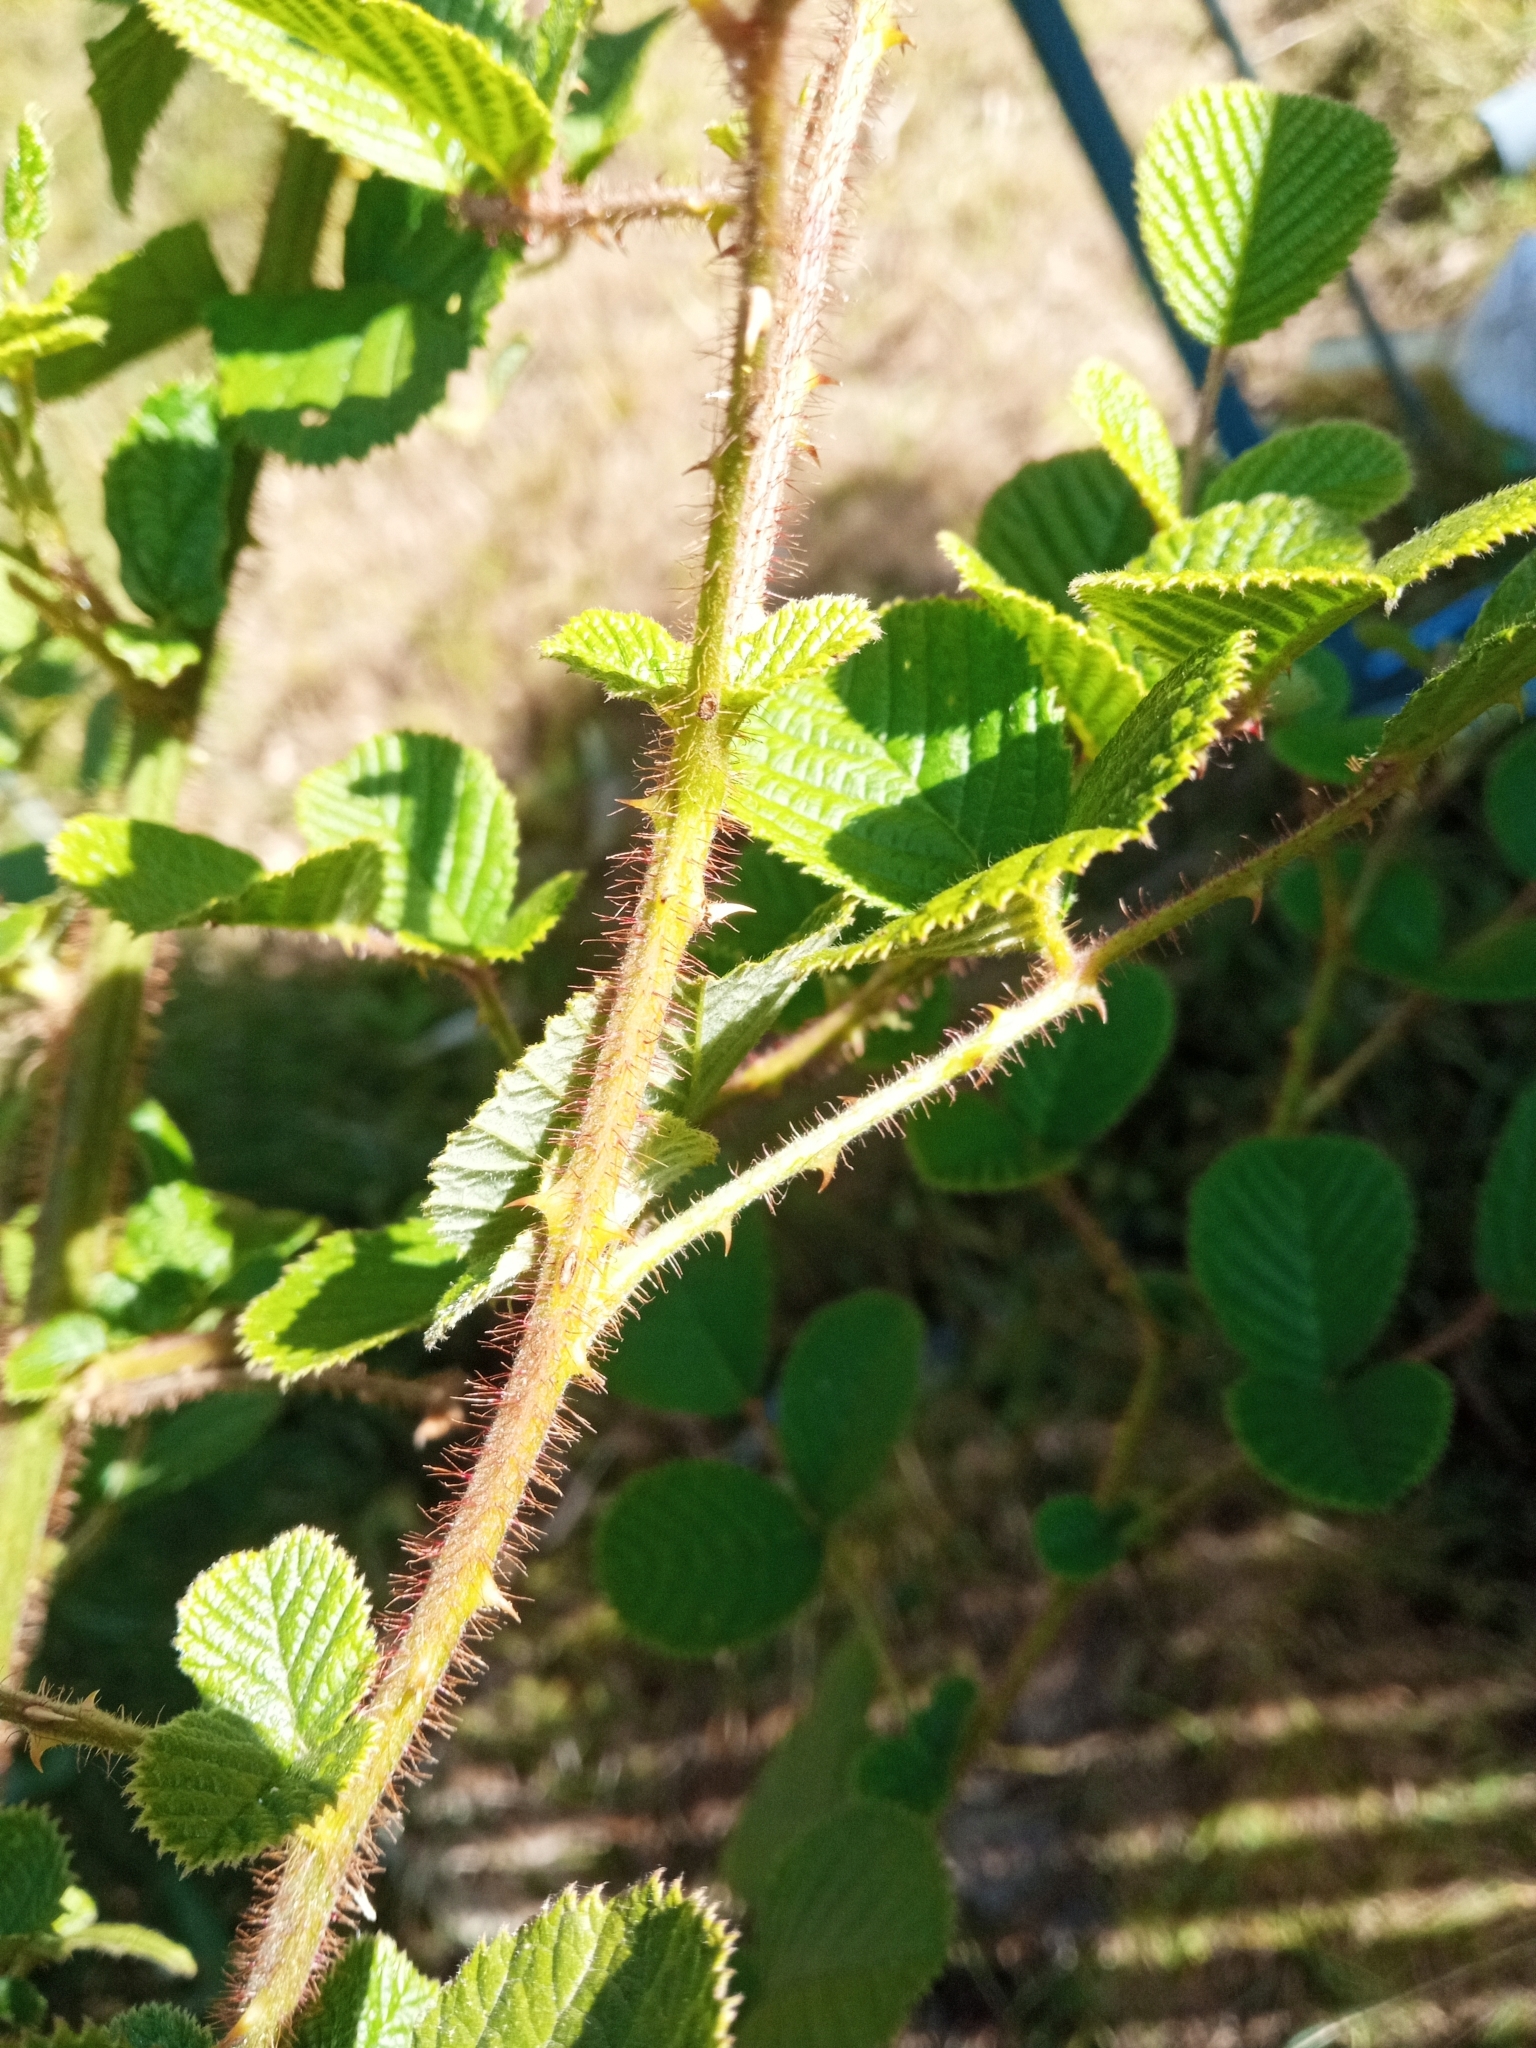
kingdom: Plantae
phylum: Tracheophyta
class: Magnoliopsida
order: Rosales
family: Rosaceae
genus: Rubus
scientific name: Rubus ellipticus
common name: Cheeseberry
